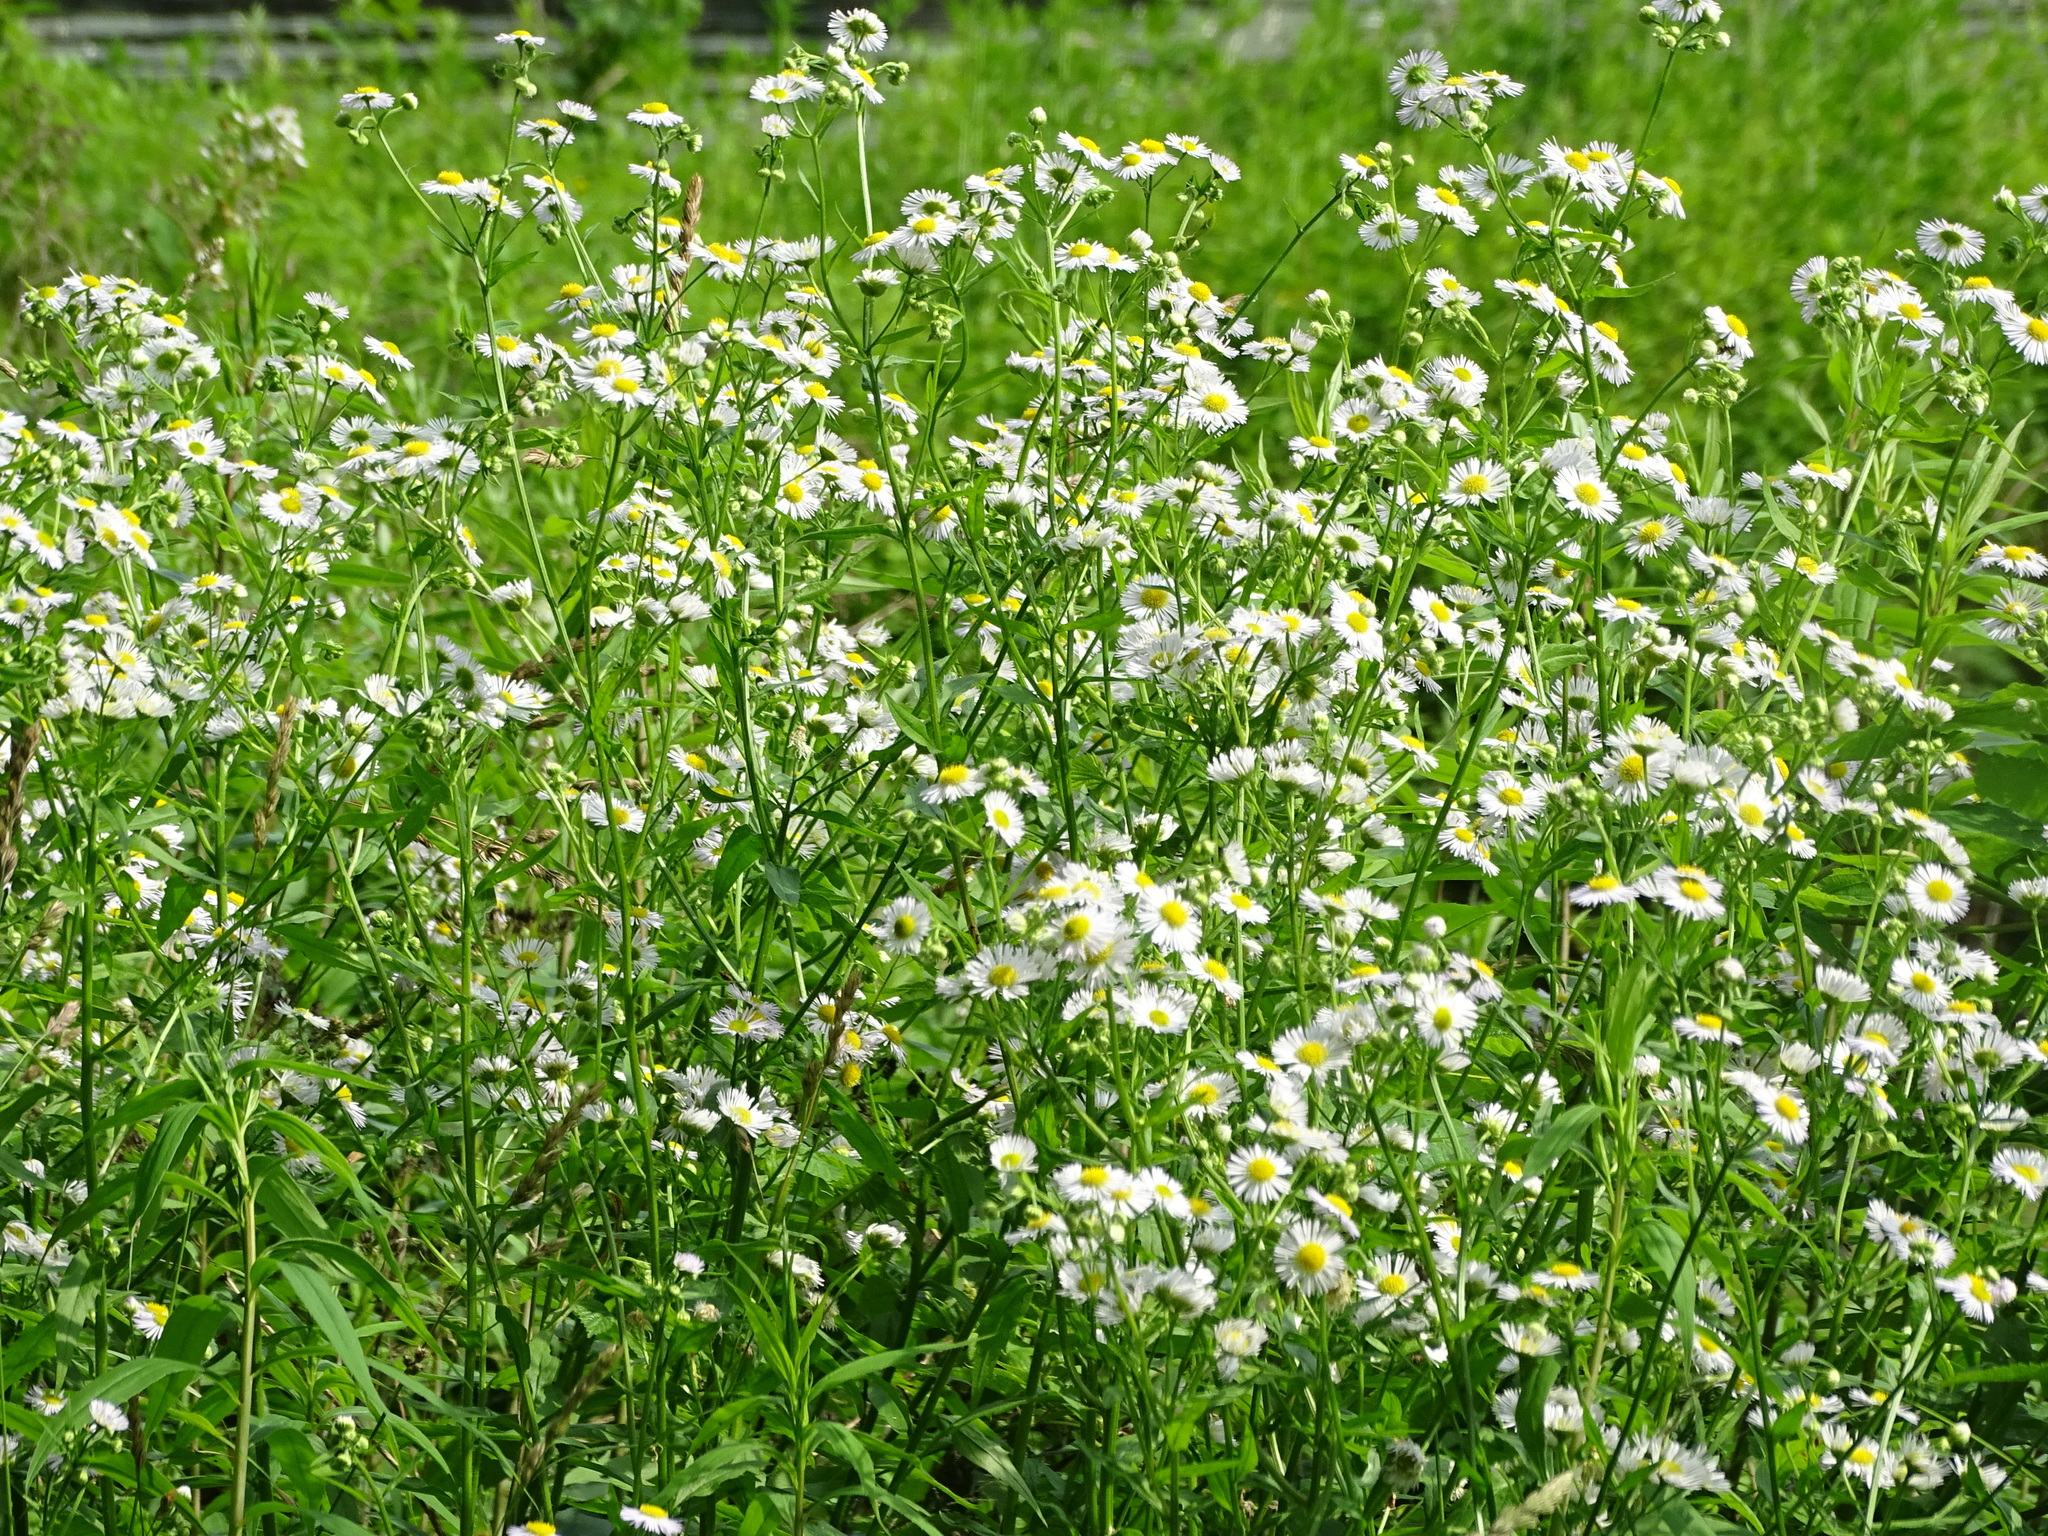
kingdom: Plantae
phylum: Tracheophyta
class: Magnoliopsida
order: Asterales
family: Asteraceae
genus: Erigeron
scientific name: Erigeron annuus
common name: Tall fleabane
